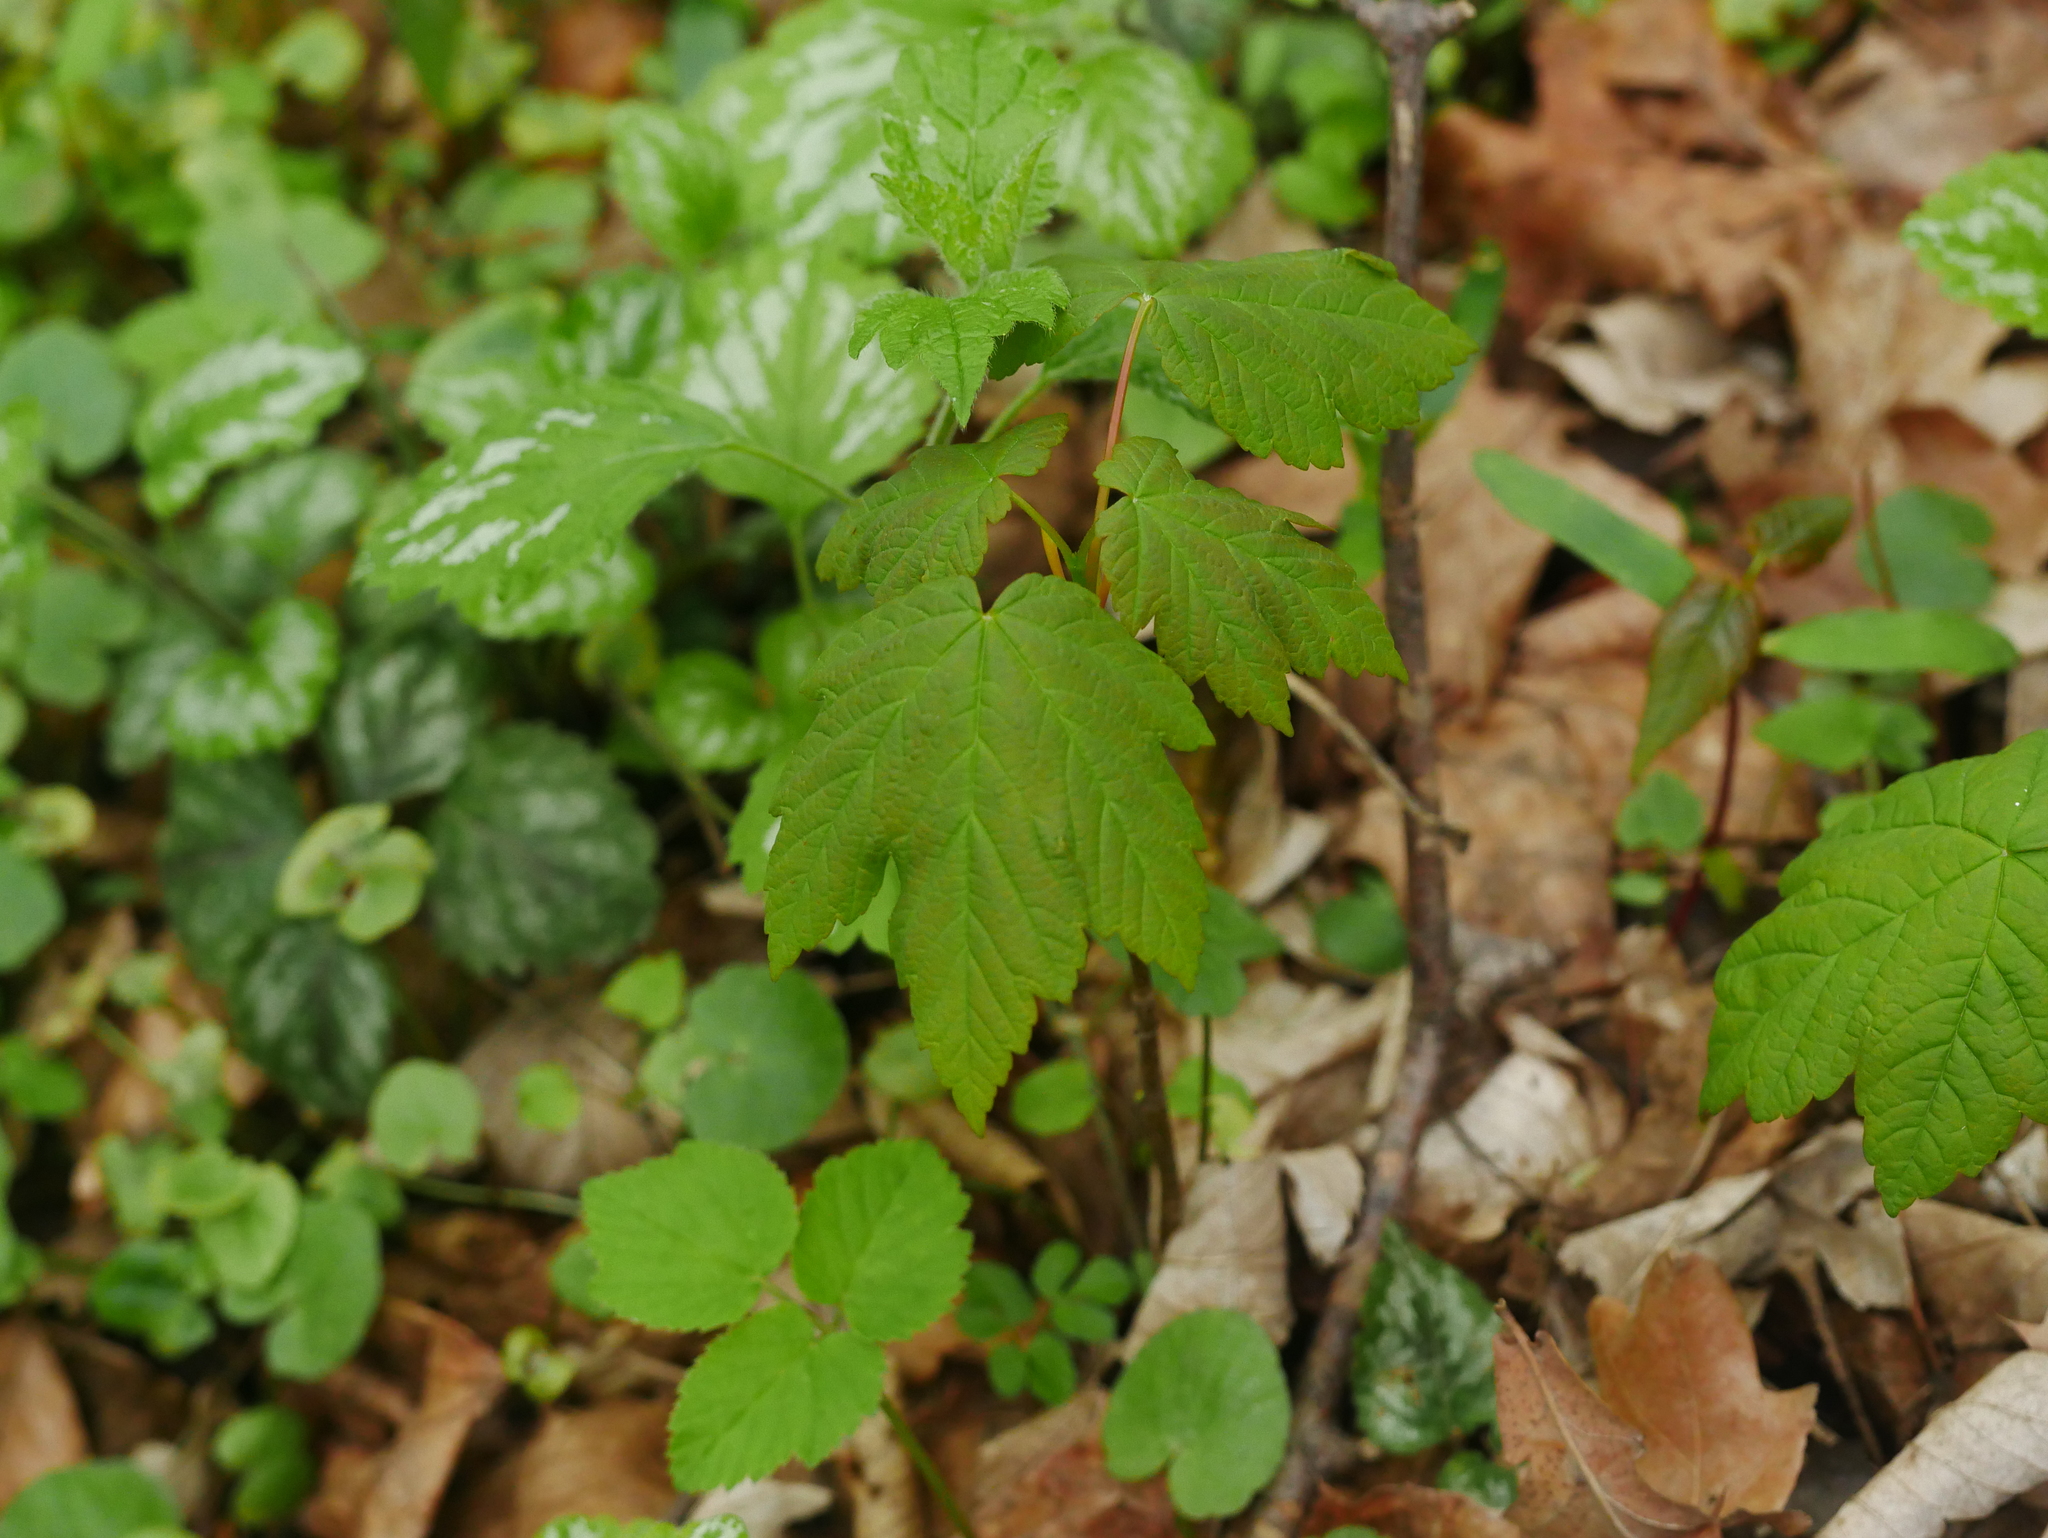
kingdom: Plantae
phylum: Tracheophyta
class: Magnoliopsida
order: Sapindales
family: Sapindaceae
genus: Acer
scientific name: Acer pseudoplatanus
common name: Sycamore
